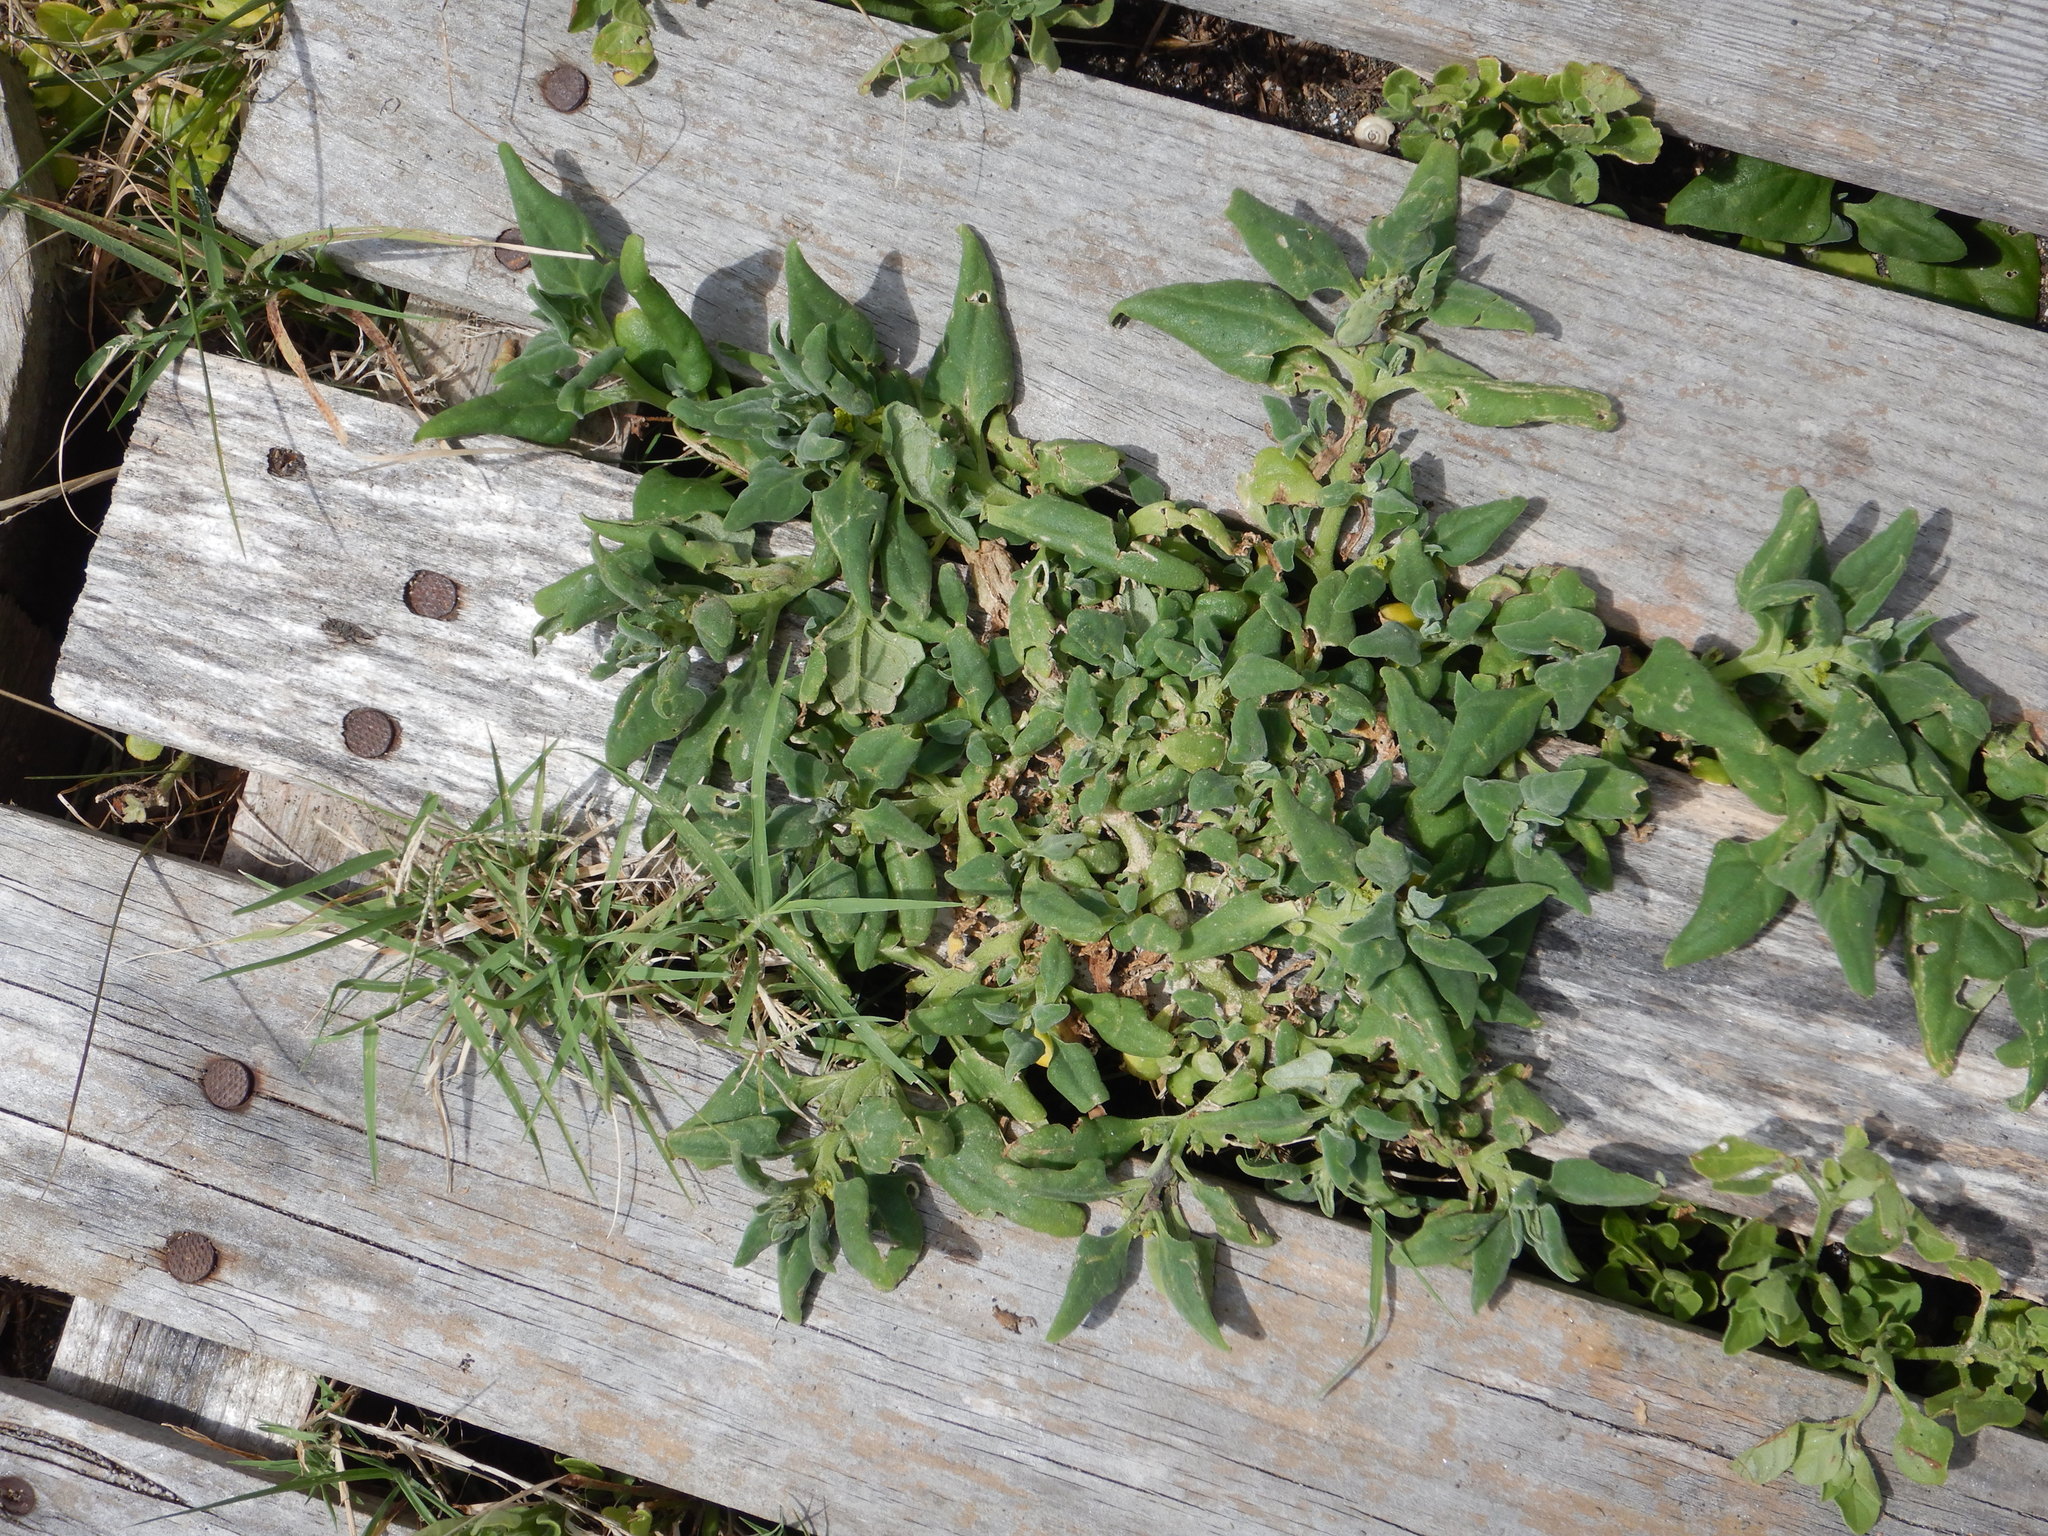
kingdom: Plantae
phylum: Tracheophyta
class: Magnoliopsida
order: Caryophyllales
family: Aizoaceae
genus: Tetragonia
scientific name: Tetragonia tetragonoides
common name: New zealand-spinach
